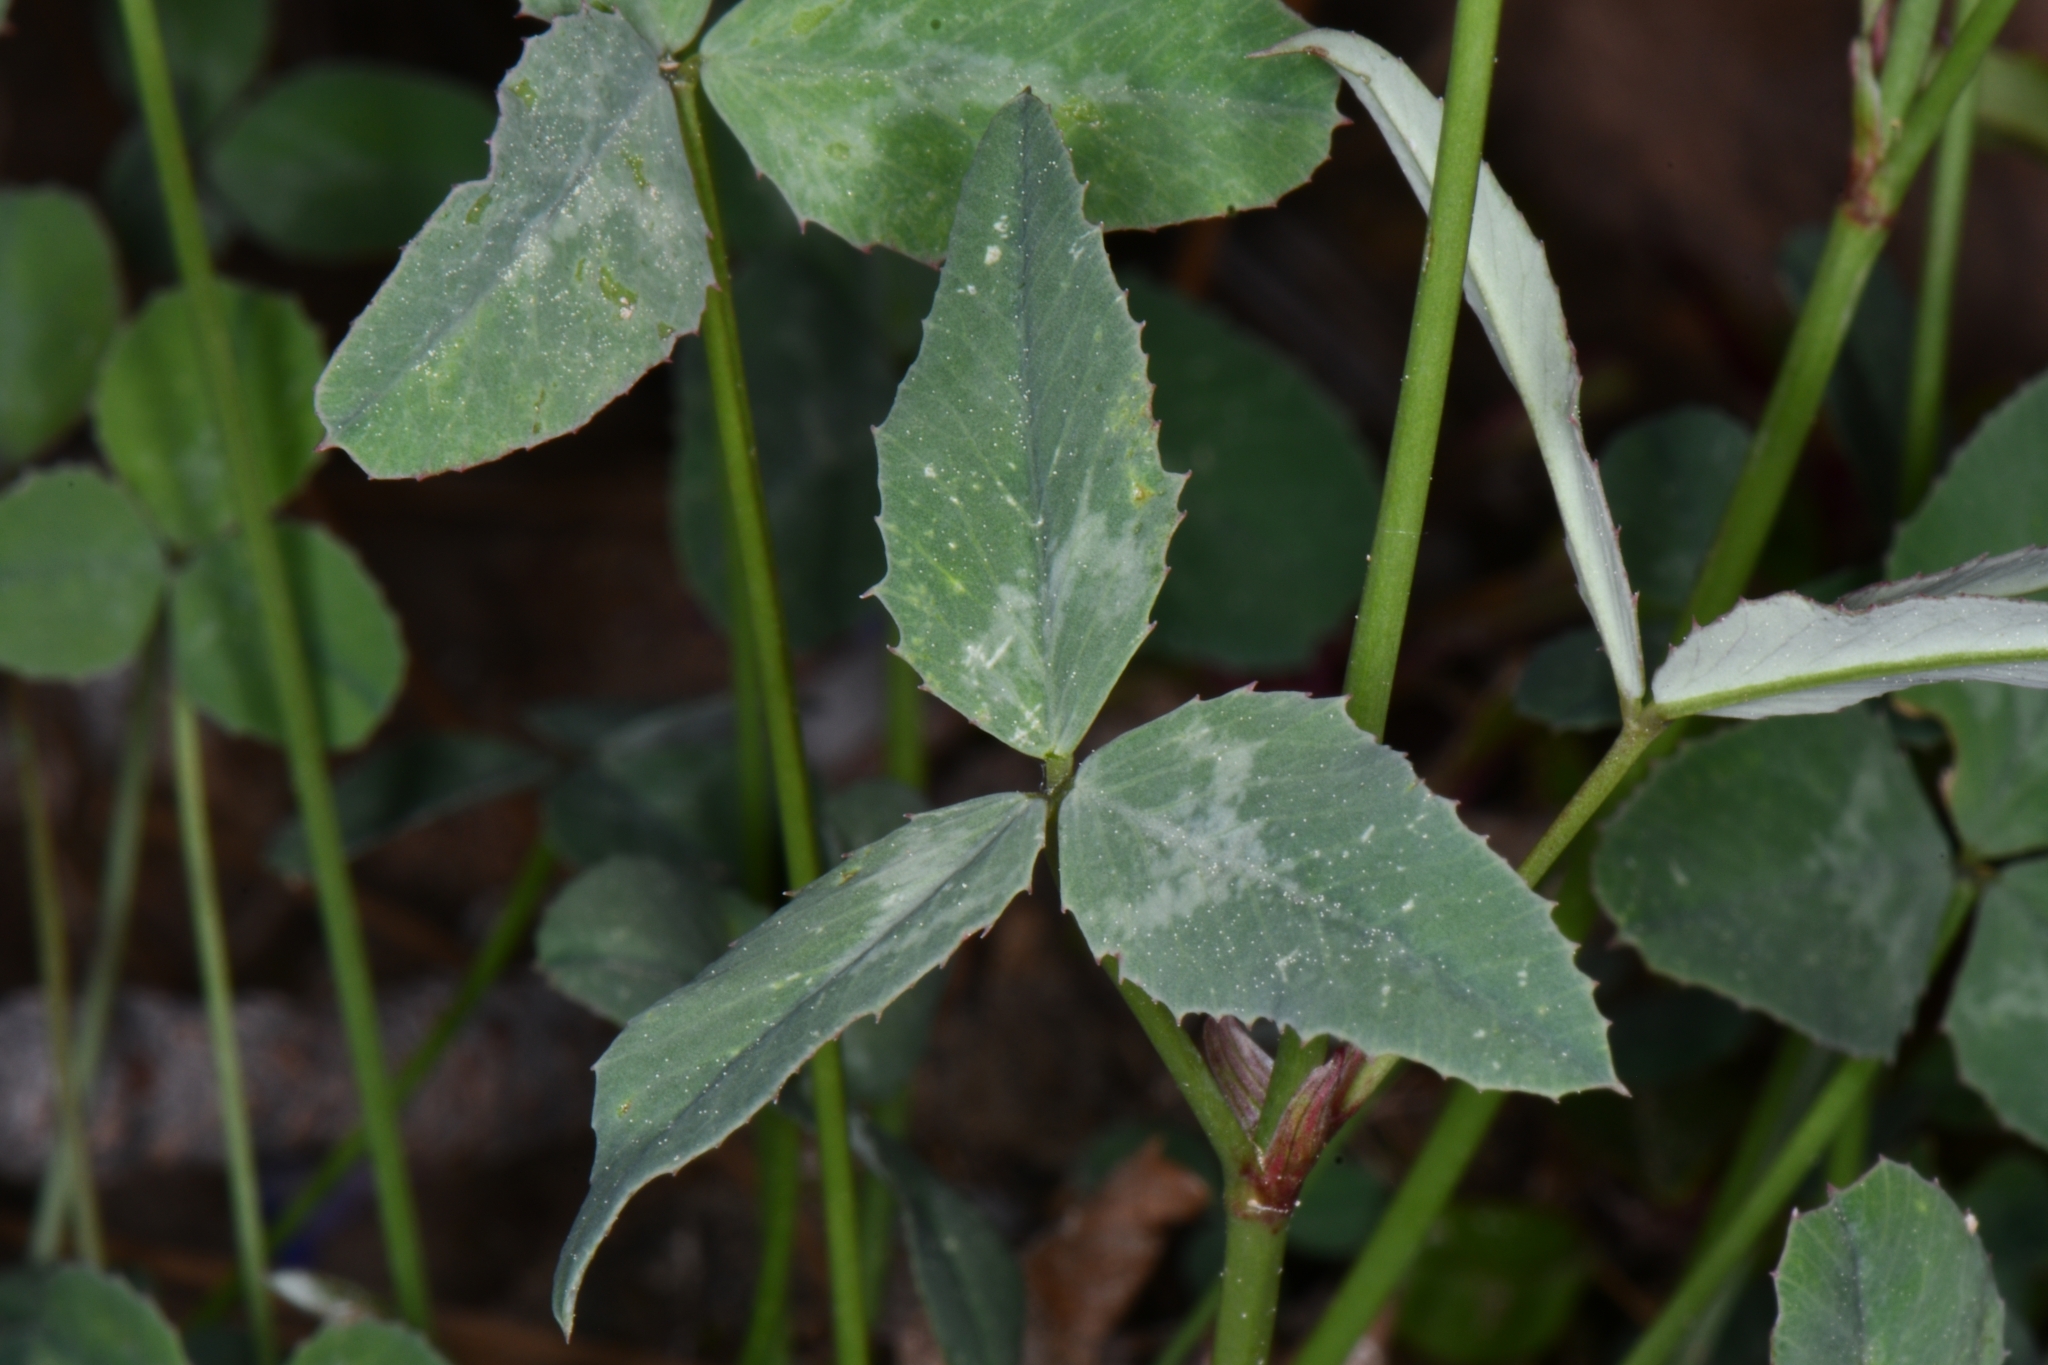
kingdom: Plantae
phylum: Tracheophyta
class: Magnoliopsida
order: Fabales
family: Fabaceae
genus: Trifolium
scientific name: Trifolium kingii
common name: Shasta clover
